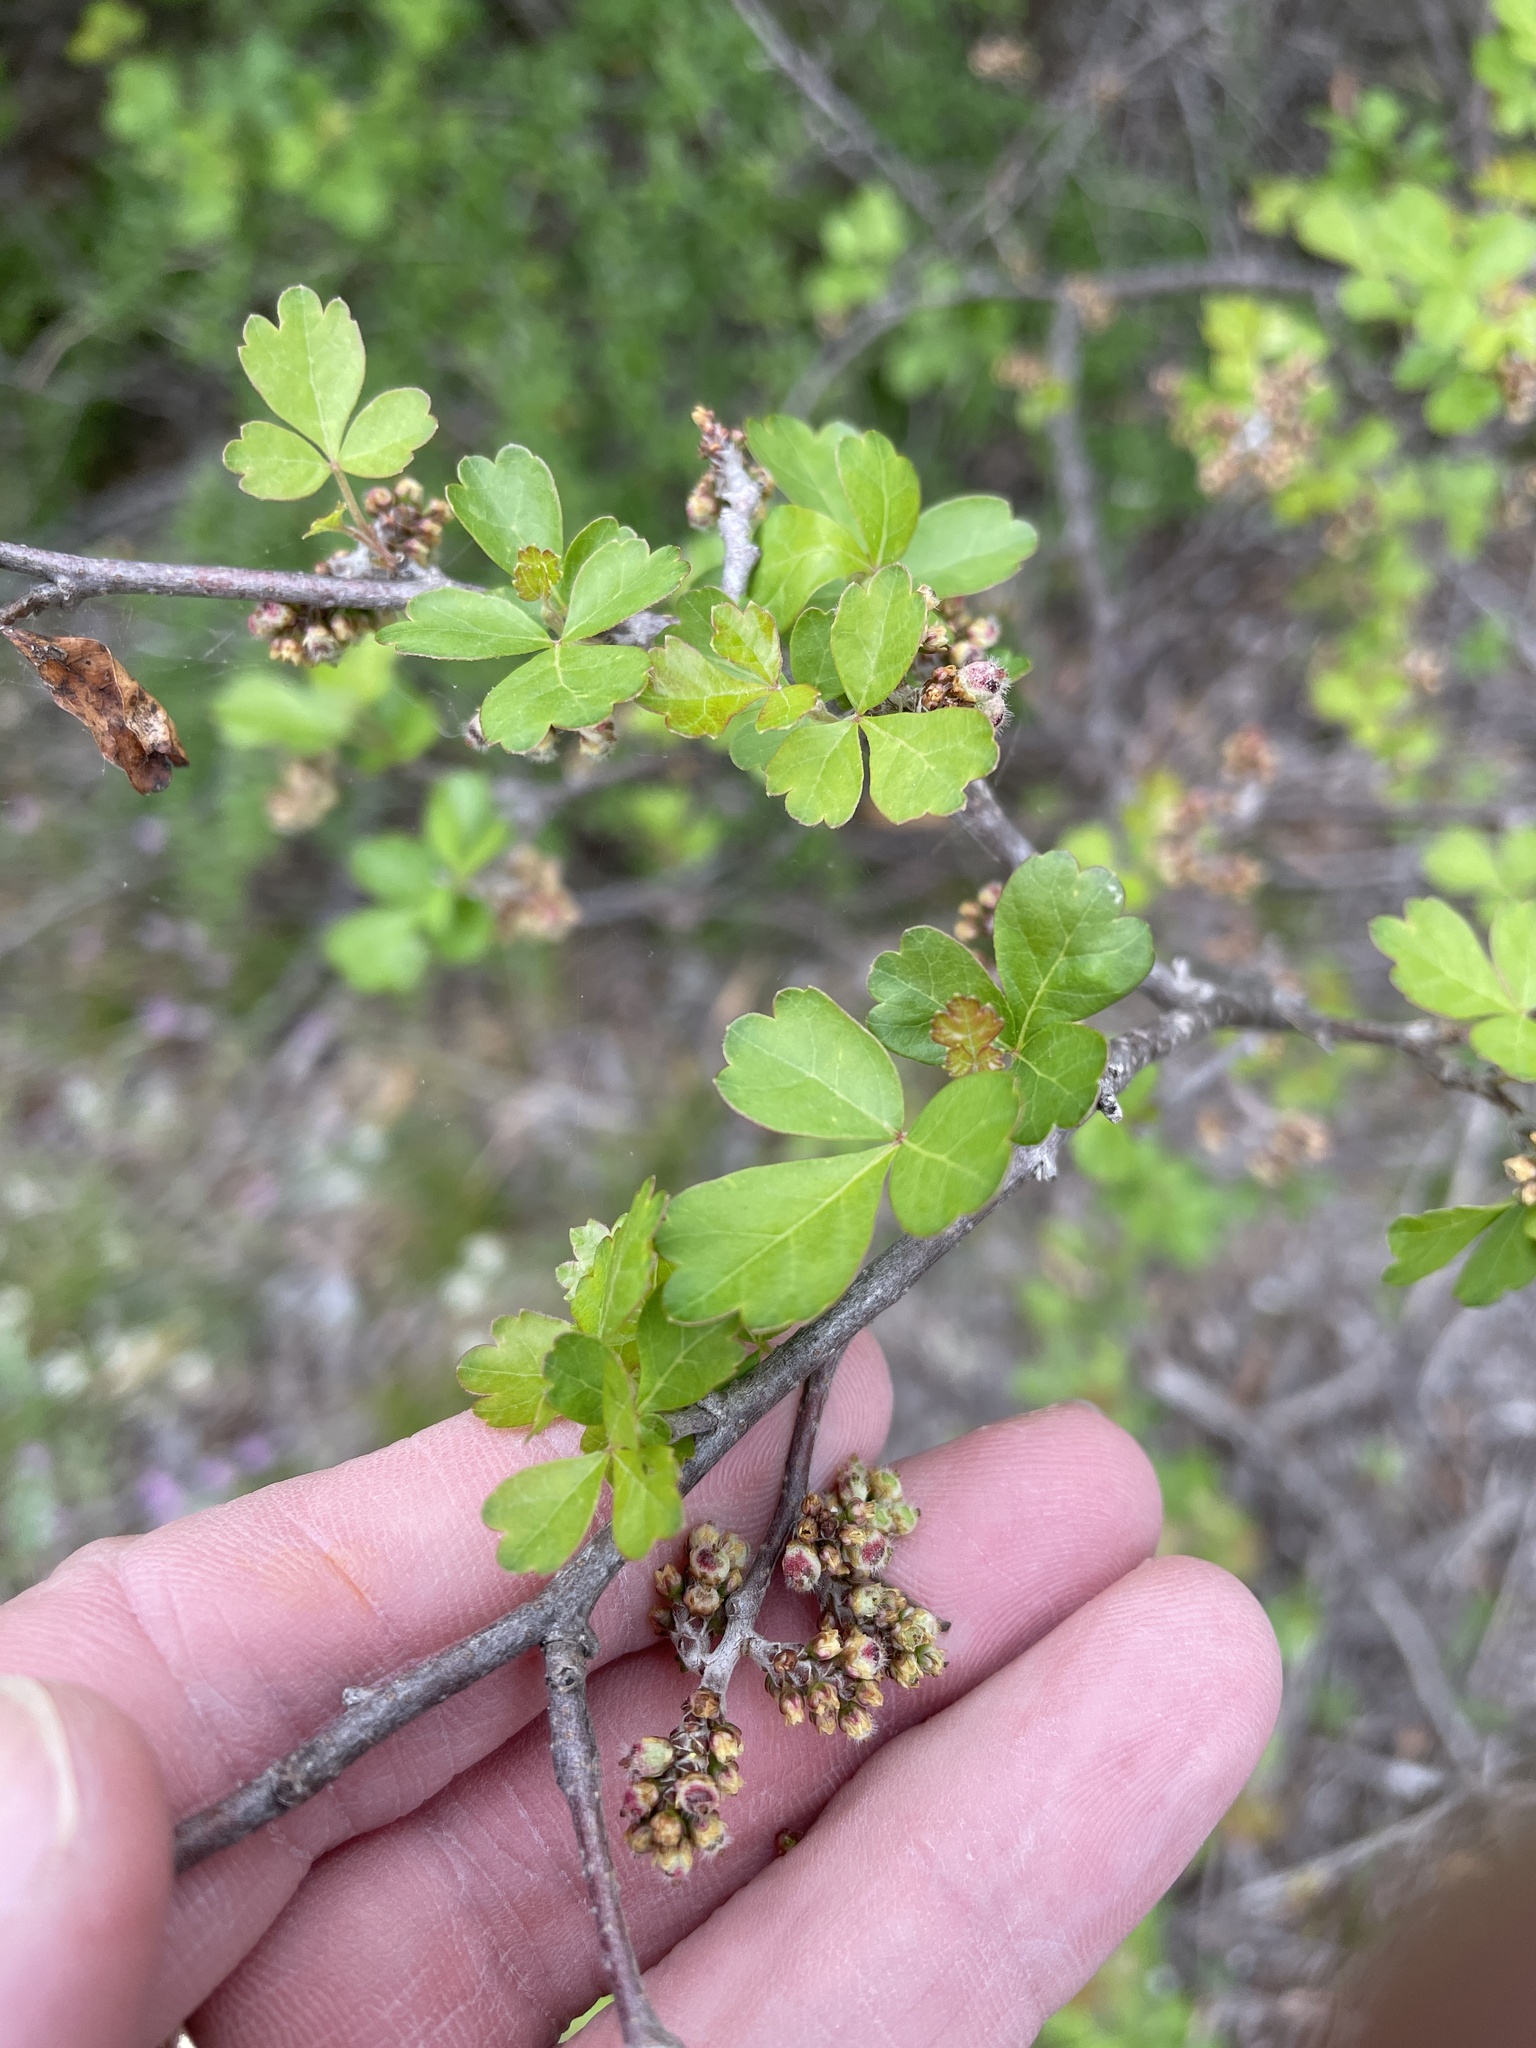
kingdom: Plantae
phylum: Tracheophyta
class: Magnoliopsida
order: Sapindales
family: Anacardiaceae
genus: Rhus
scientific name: Rhus aromatica
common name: Aromatic sumac
